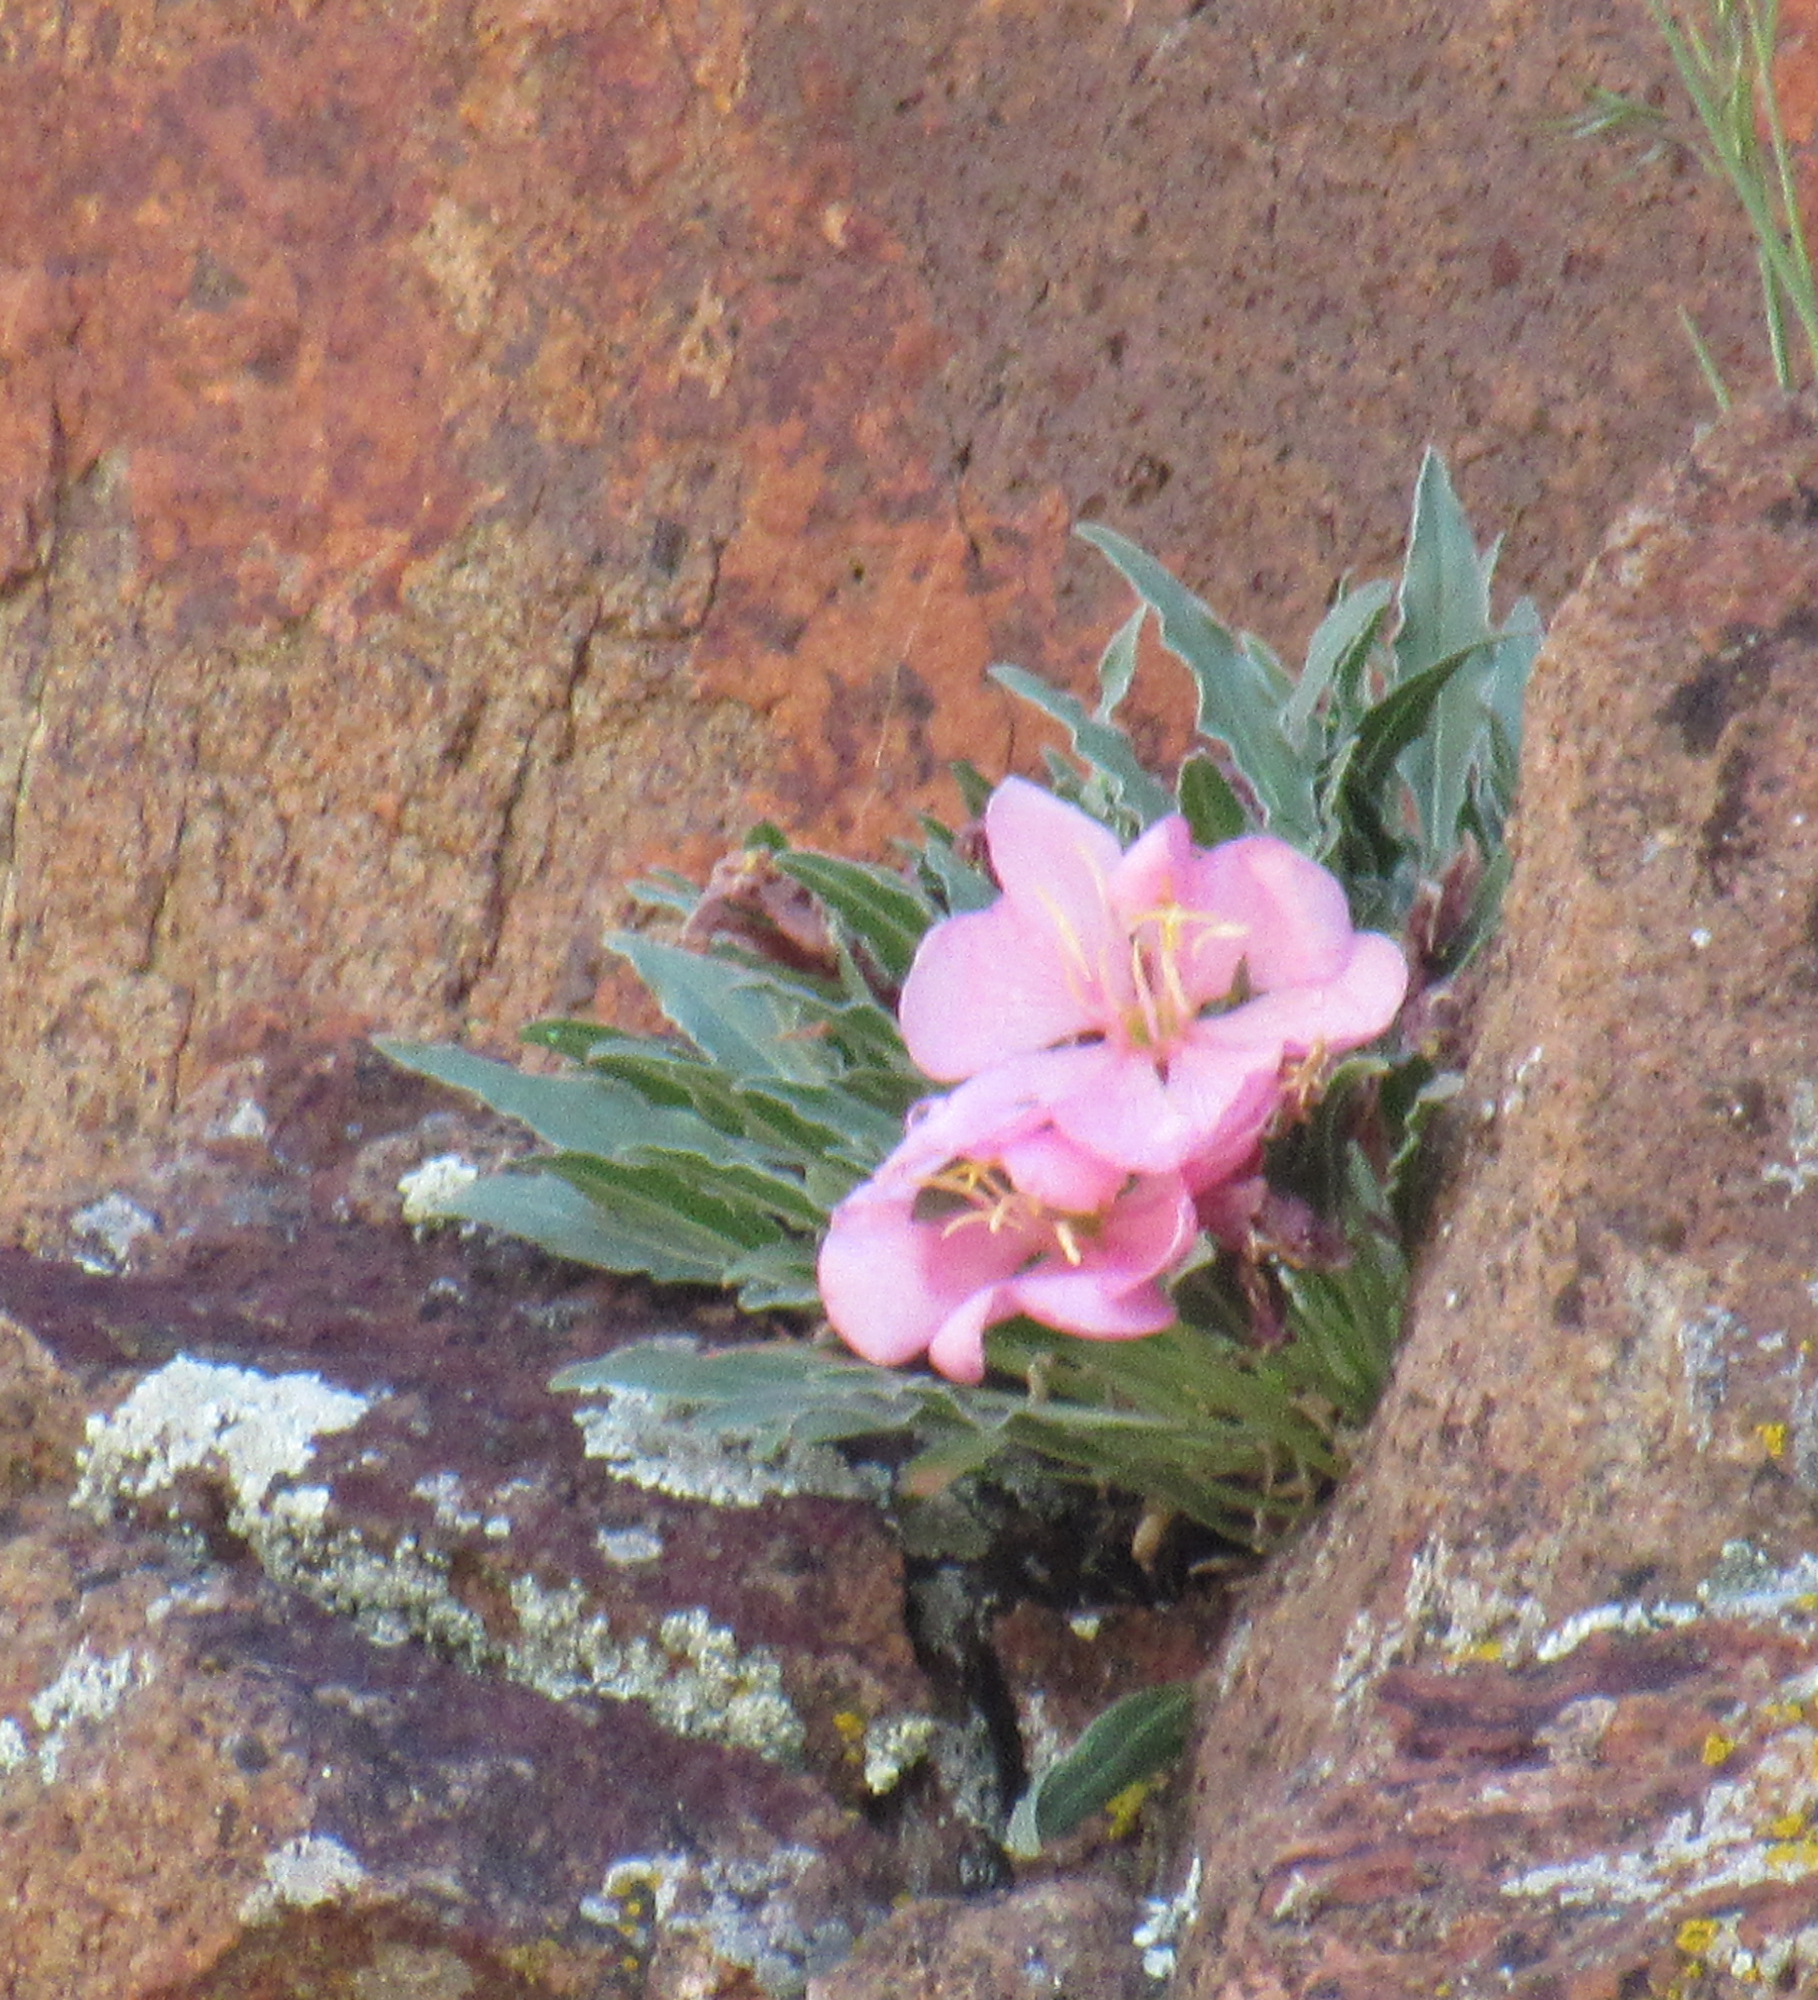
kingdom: Plantae
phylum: Tracheophyta
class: Magnoliopsida
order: Myrtales
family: Onagraceae
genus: Oenothera
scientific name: Oenothera cespitosa
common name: Tufted evening-primrose
